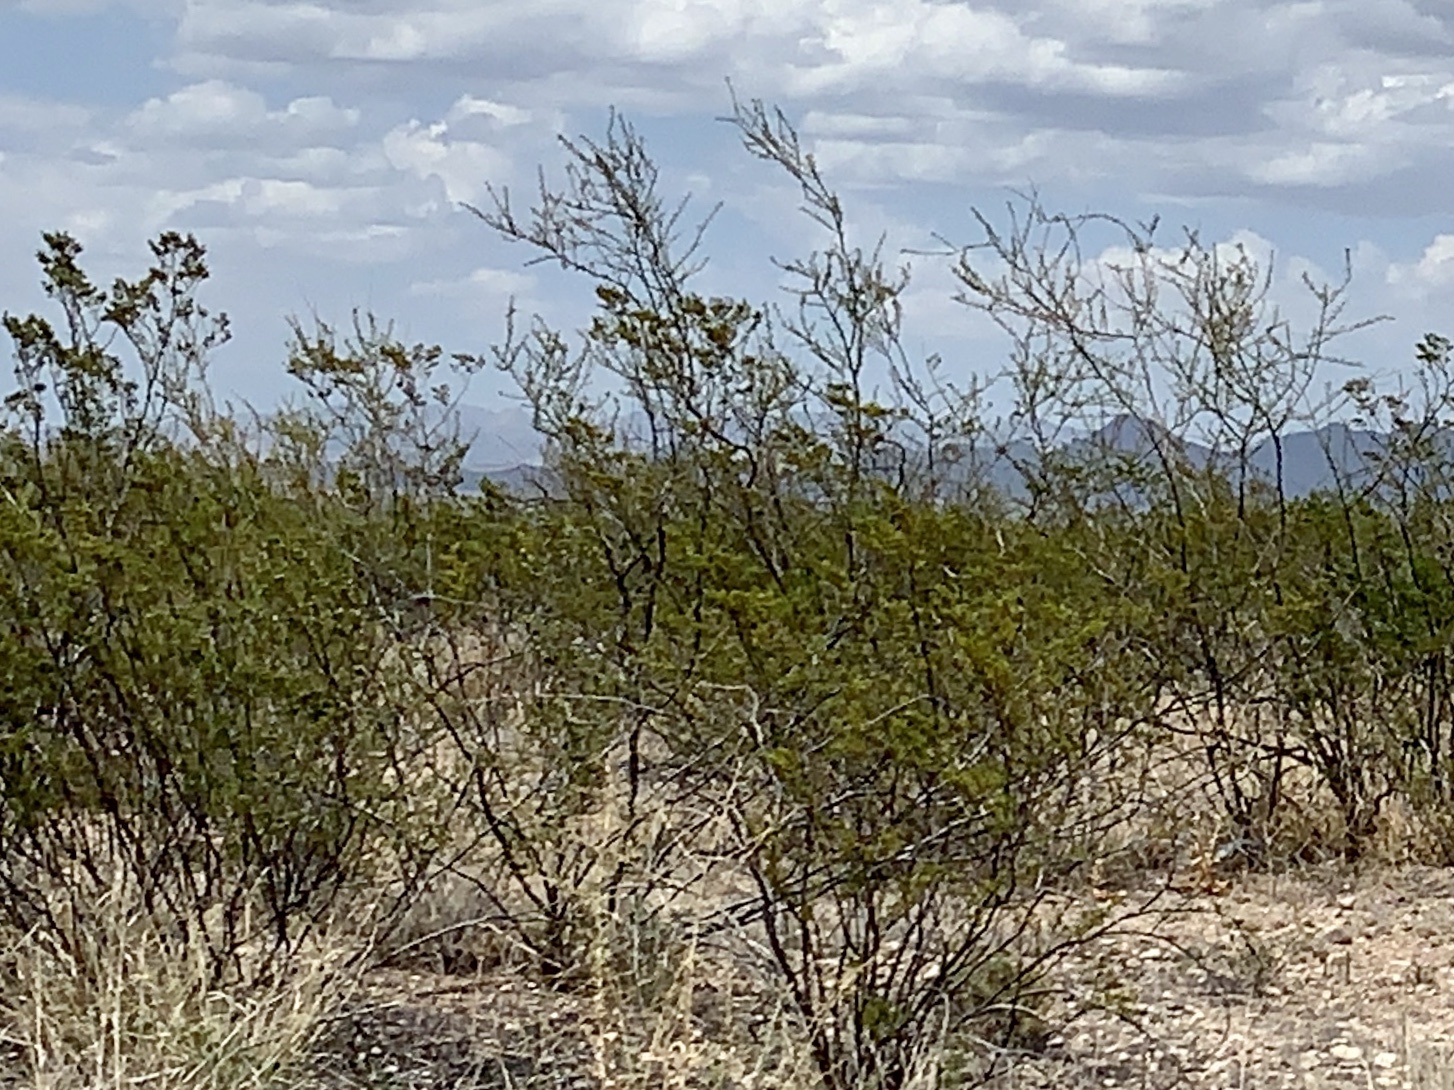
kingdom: Plantae
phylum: Tracheophyta
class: Magnoliopsida
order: Zygophyllales
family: Zygophyllaceae
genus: Larrea
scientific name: Larrea tridentata
